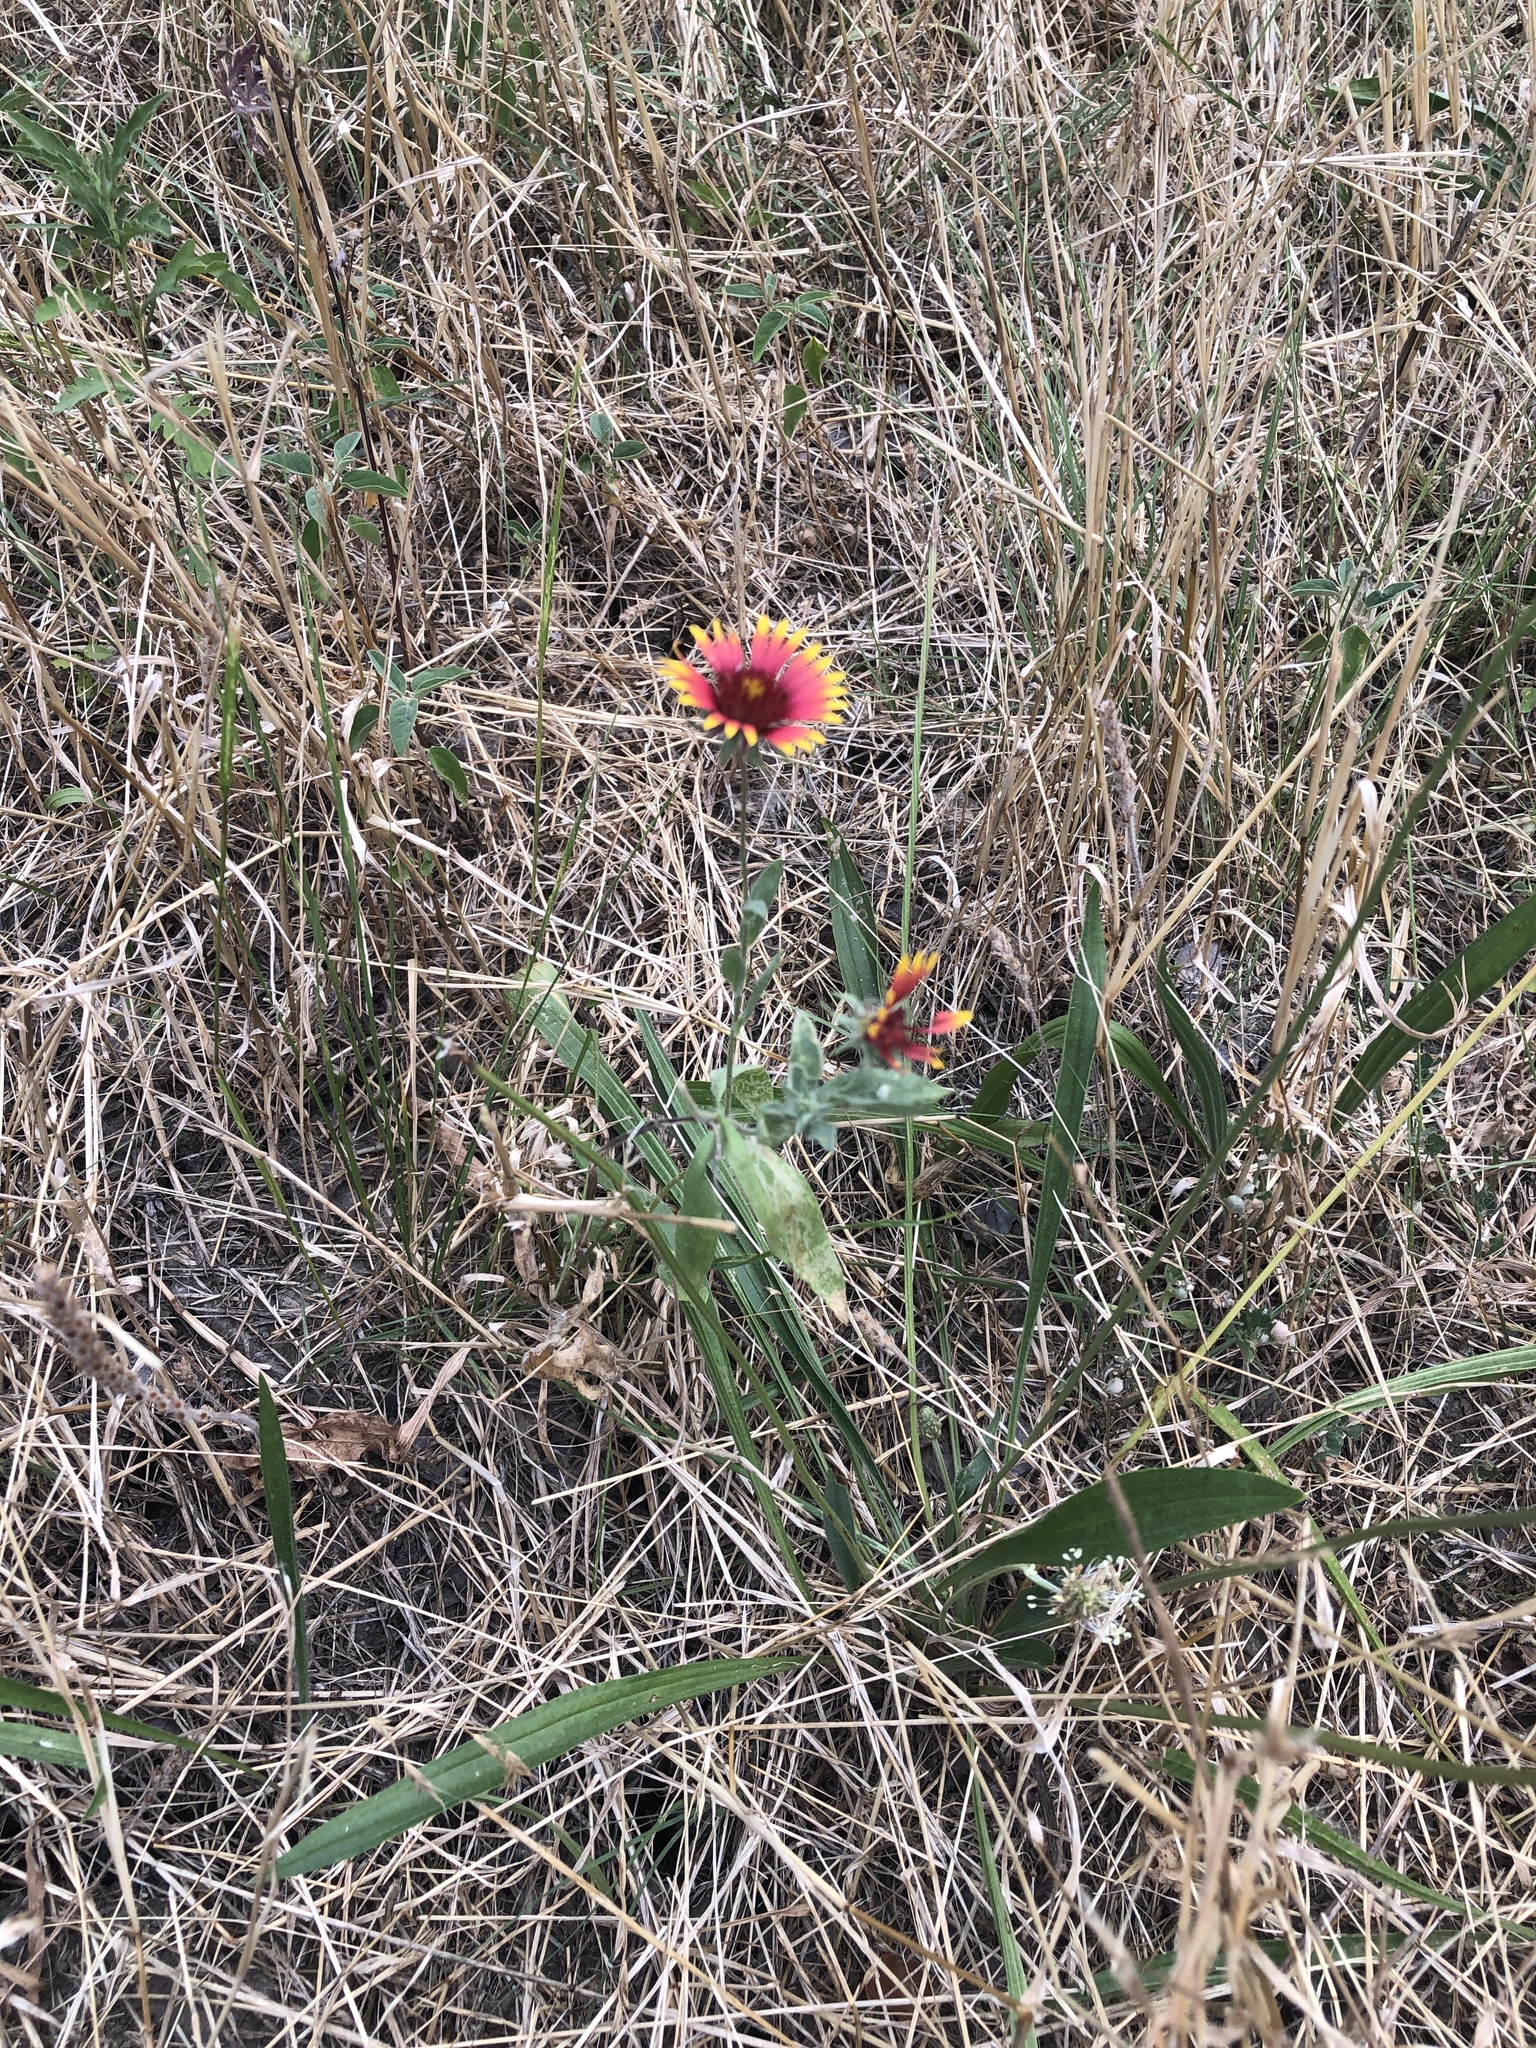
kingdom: Plantae
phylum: Tracheophyta
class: Magnoliopsida
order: Asterales
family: Asteraceae
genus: Gaillardia
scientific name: Gaillardia pulchella
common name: Firewheel
